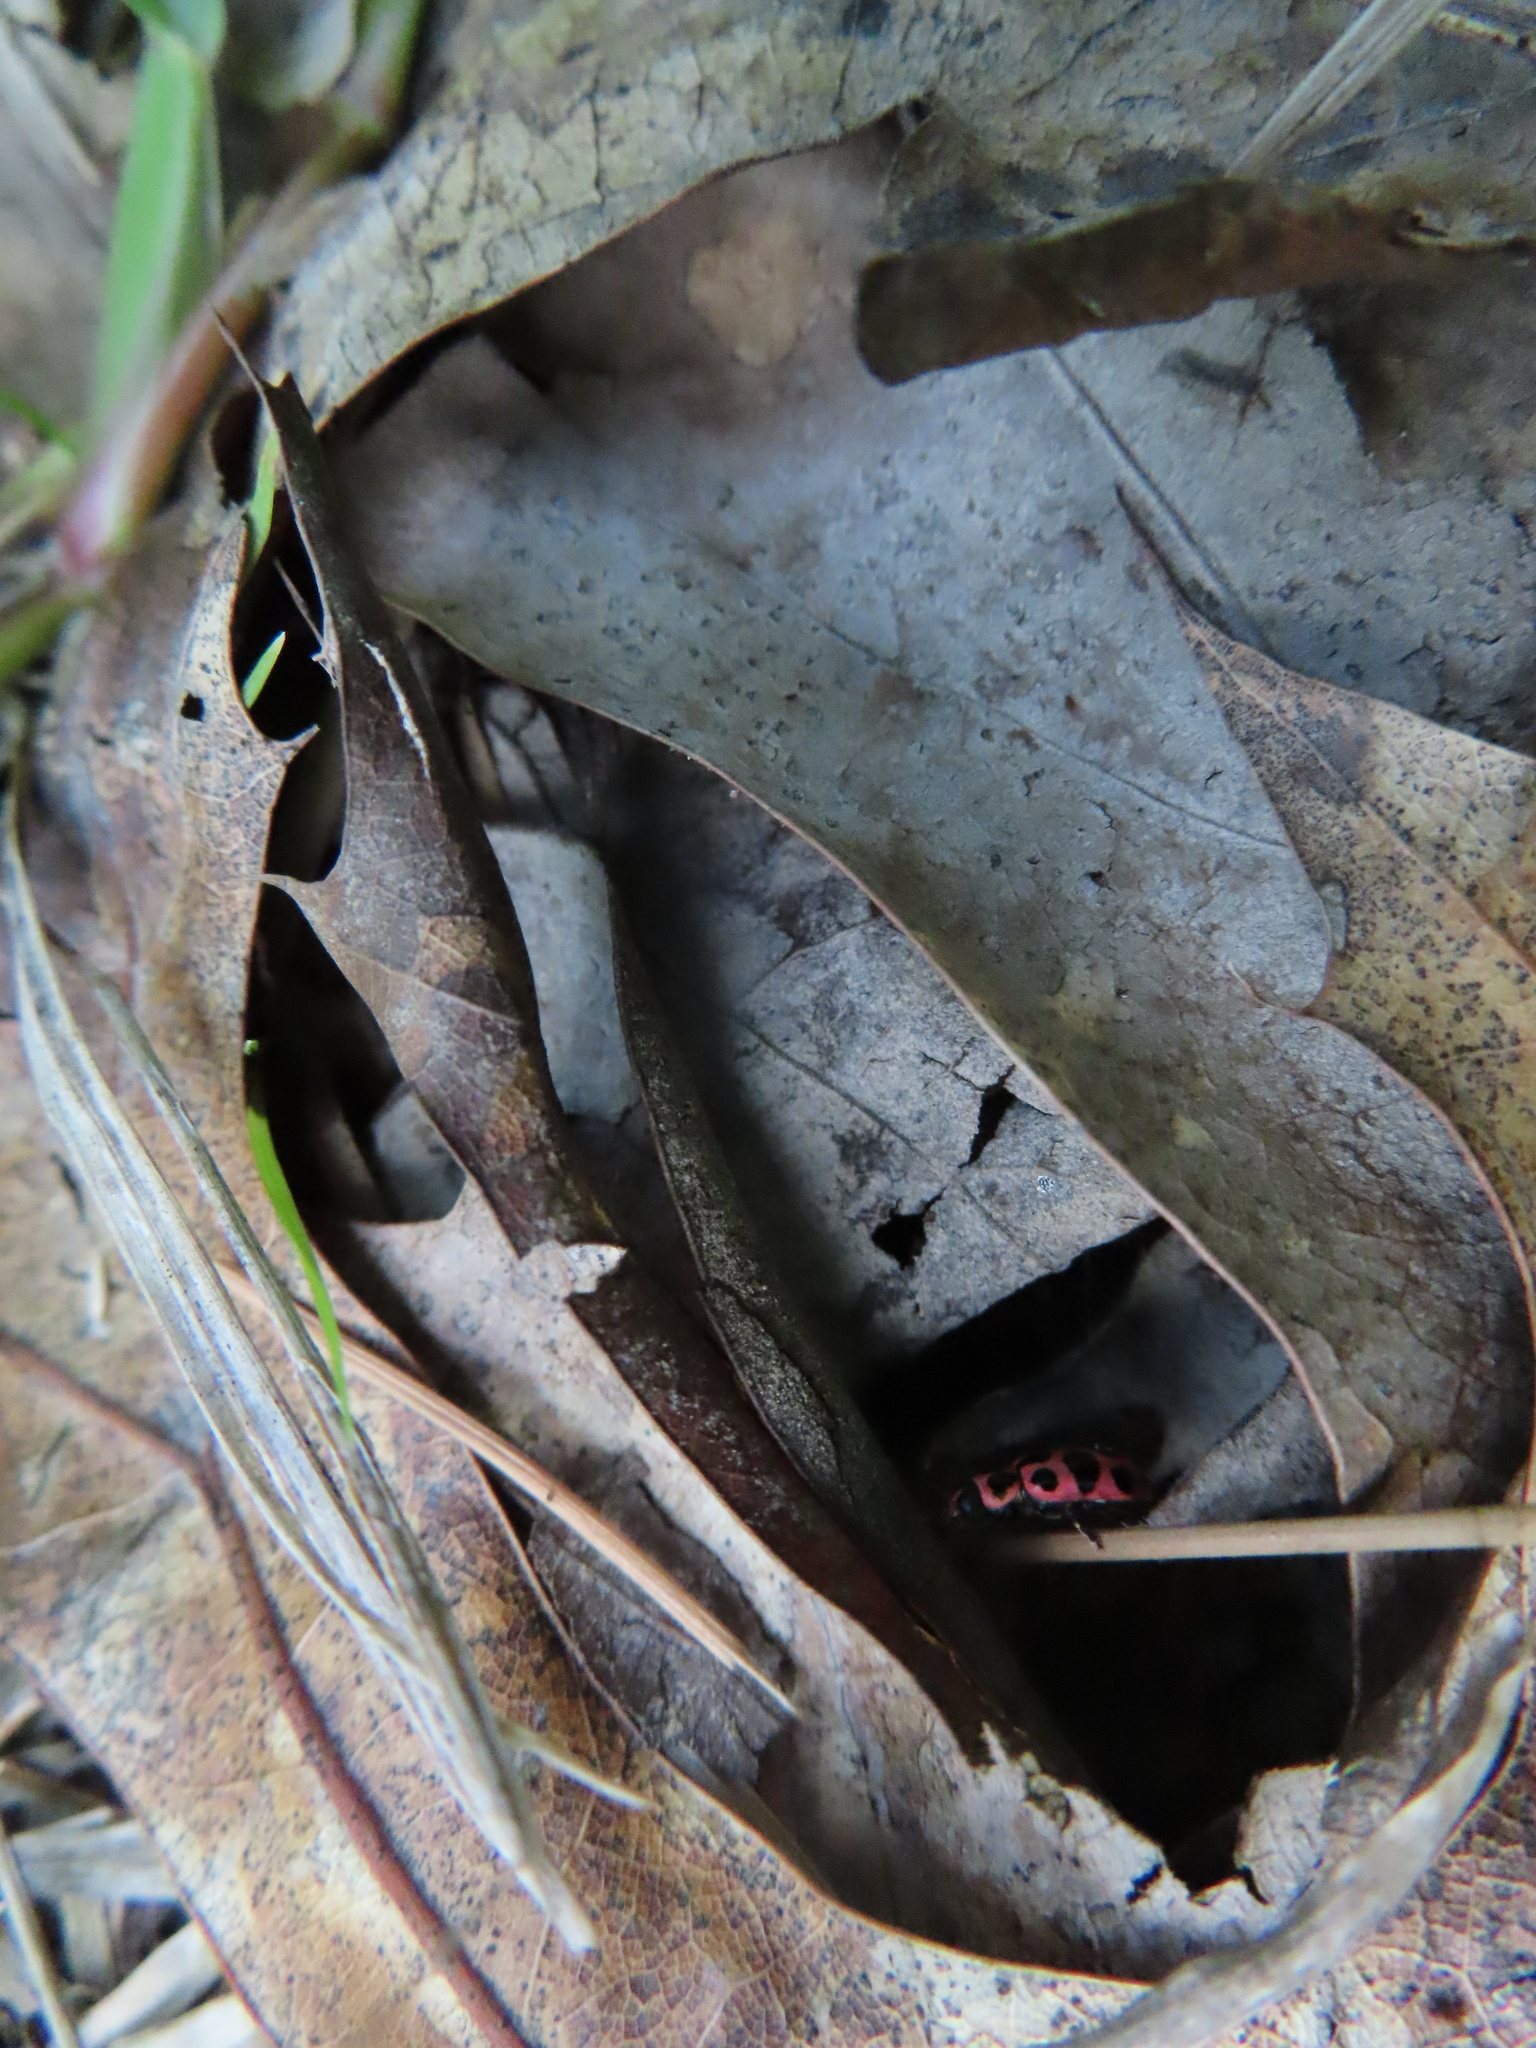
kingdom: Animalia
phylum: Arthropoda
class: Insecta
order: Coleoptera
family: Coccinellidae
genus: Coleomegilla
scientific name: Coleomegilla maculata
